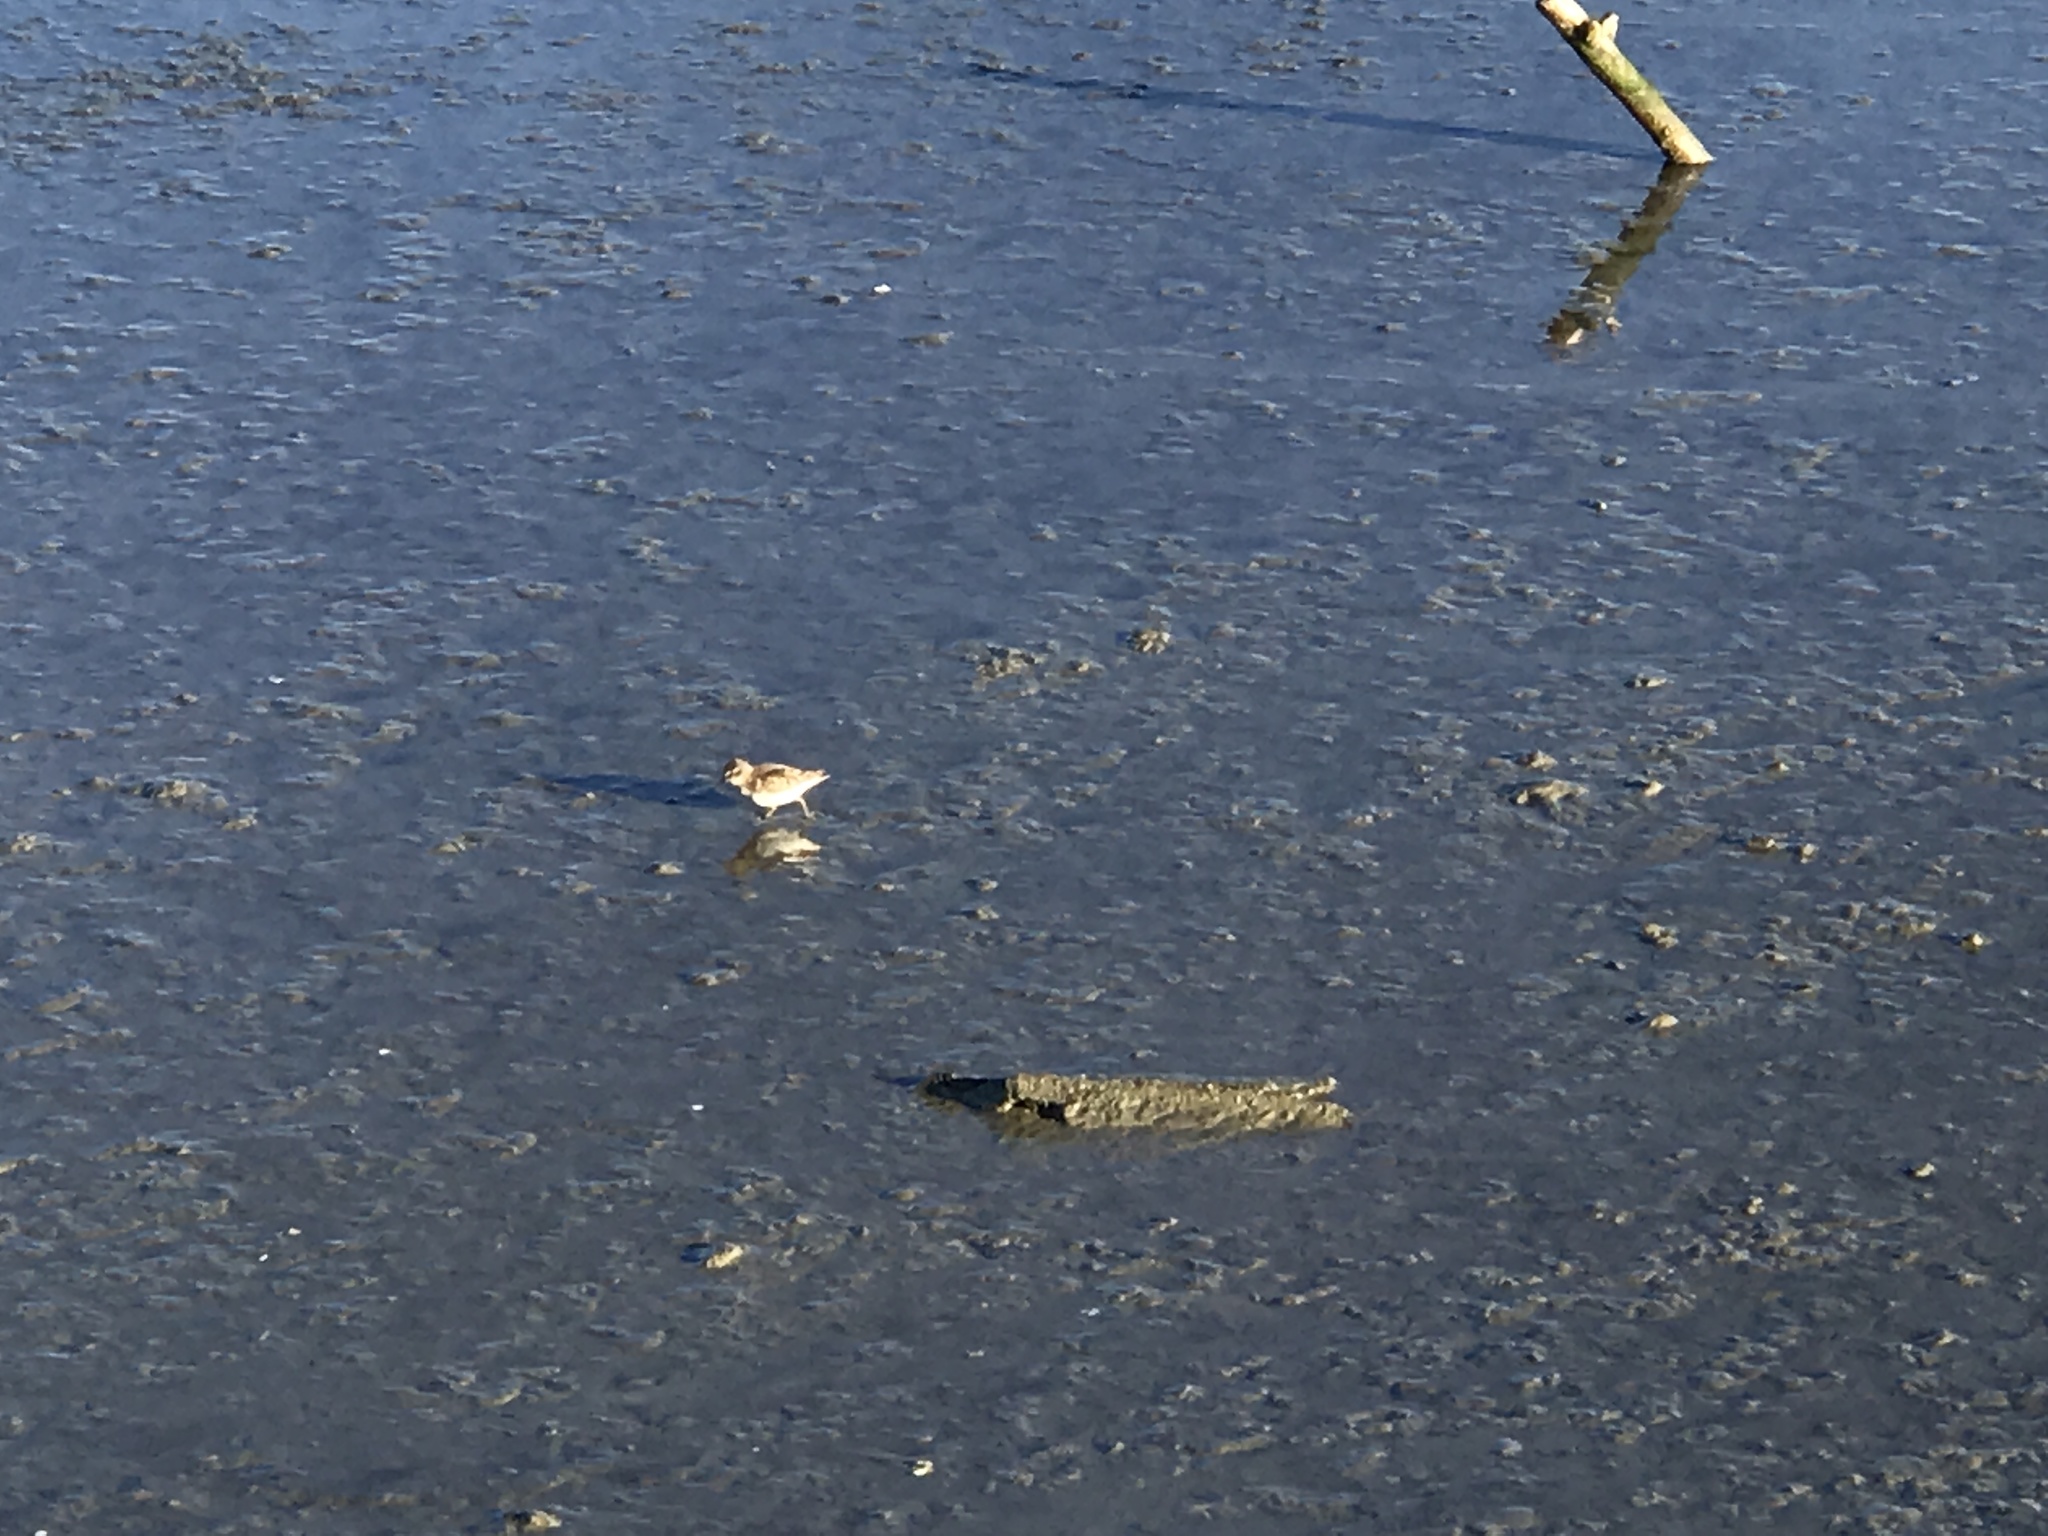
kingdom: Animalia
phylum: Chordata
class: Aves
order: Charadriiformes
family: Scolopacidae
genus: Calidris
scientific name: Calidris minutilla
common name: Least sandpiper
